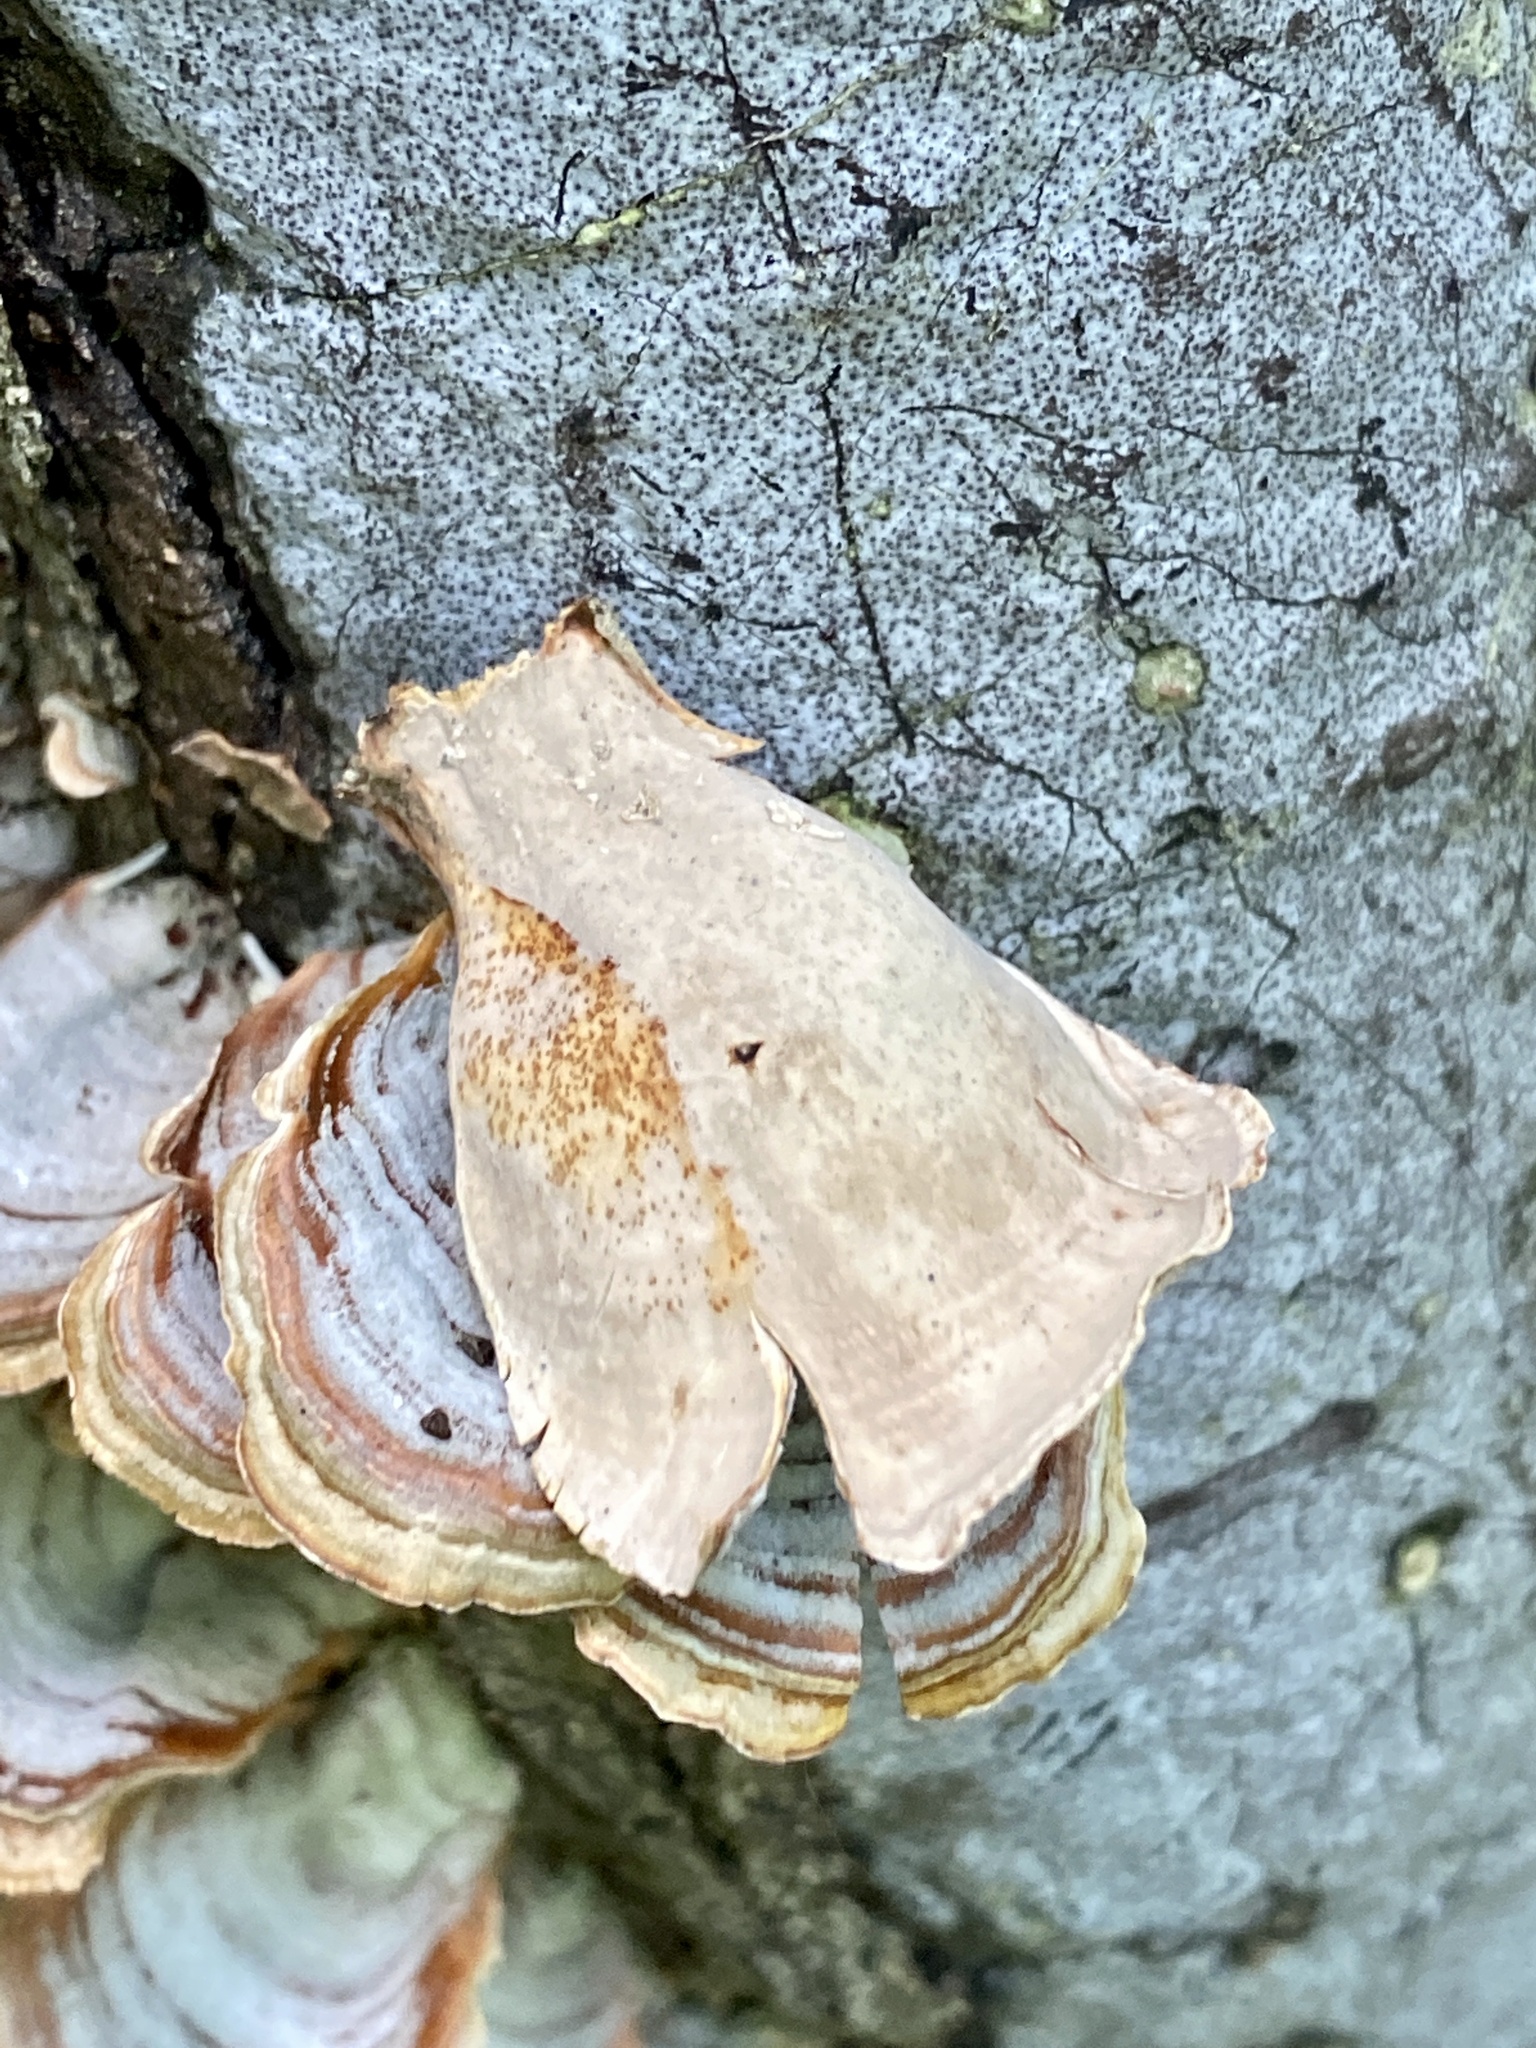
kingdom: Fungi
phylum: Basidiomycota
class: Agaricomycetes
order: Russulales
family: Stereaceae
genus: Stereum
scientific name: Stereum lobatum
